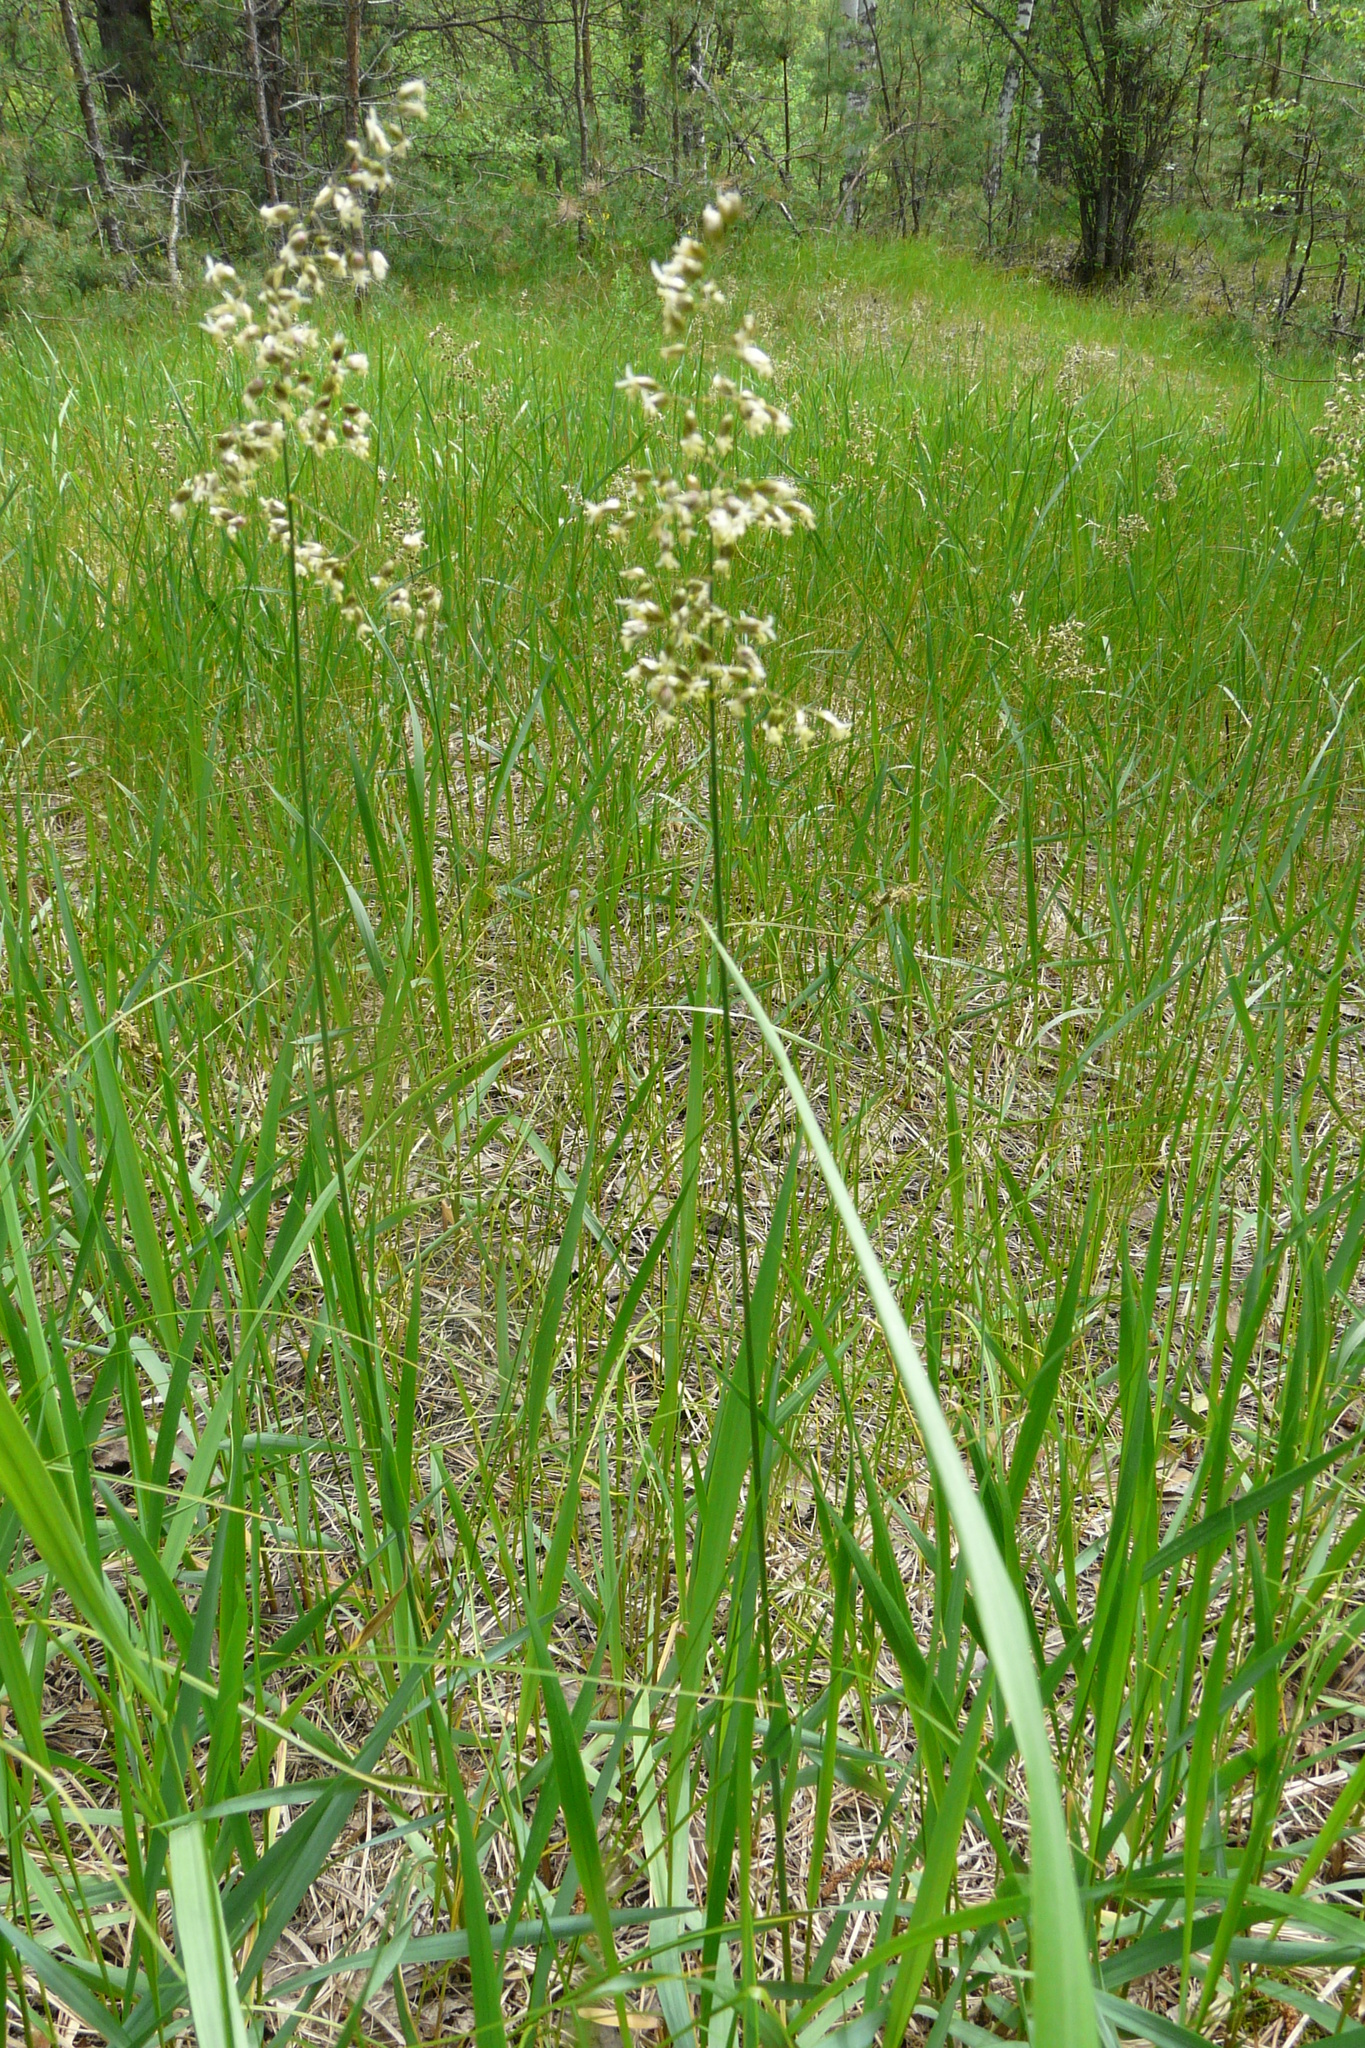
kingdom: Plantae
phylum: Tracheophyta
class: Liliopsida
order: Poales
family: Poaceae
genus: Anthoxanthum
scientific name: Anthoxanthum nitens
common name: Holy grass
